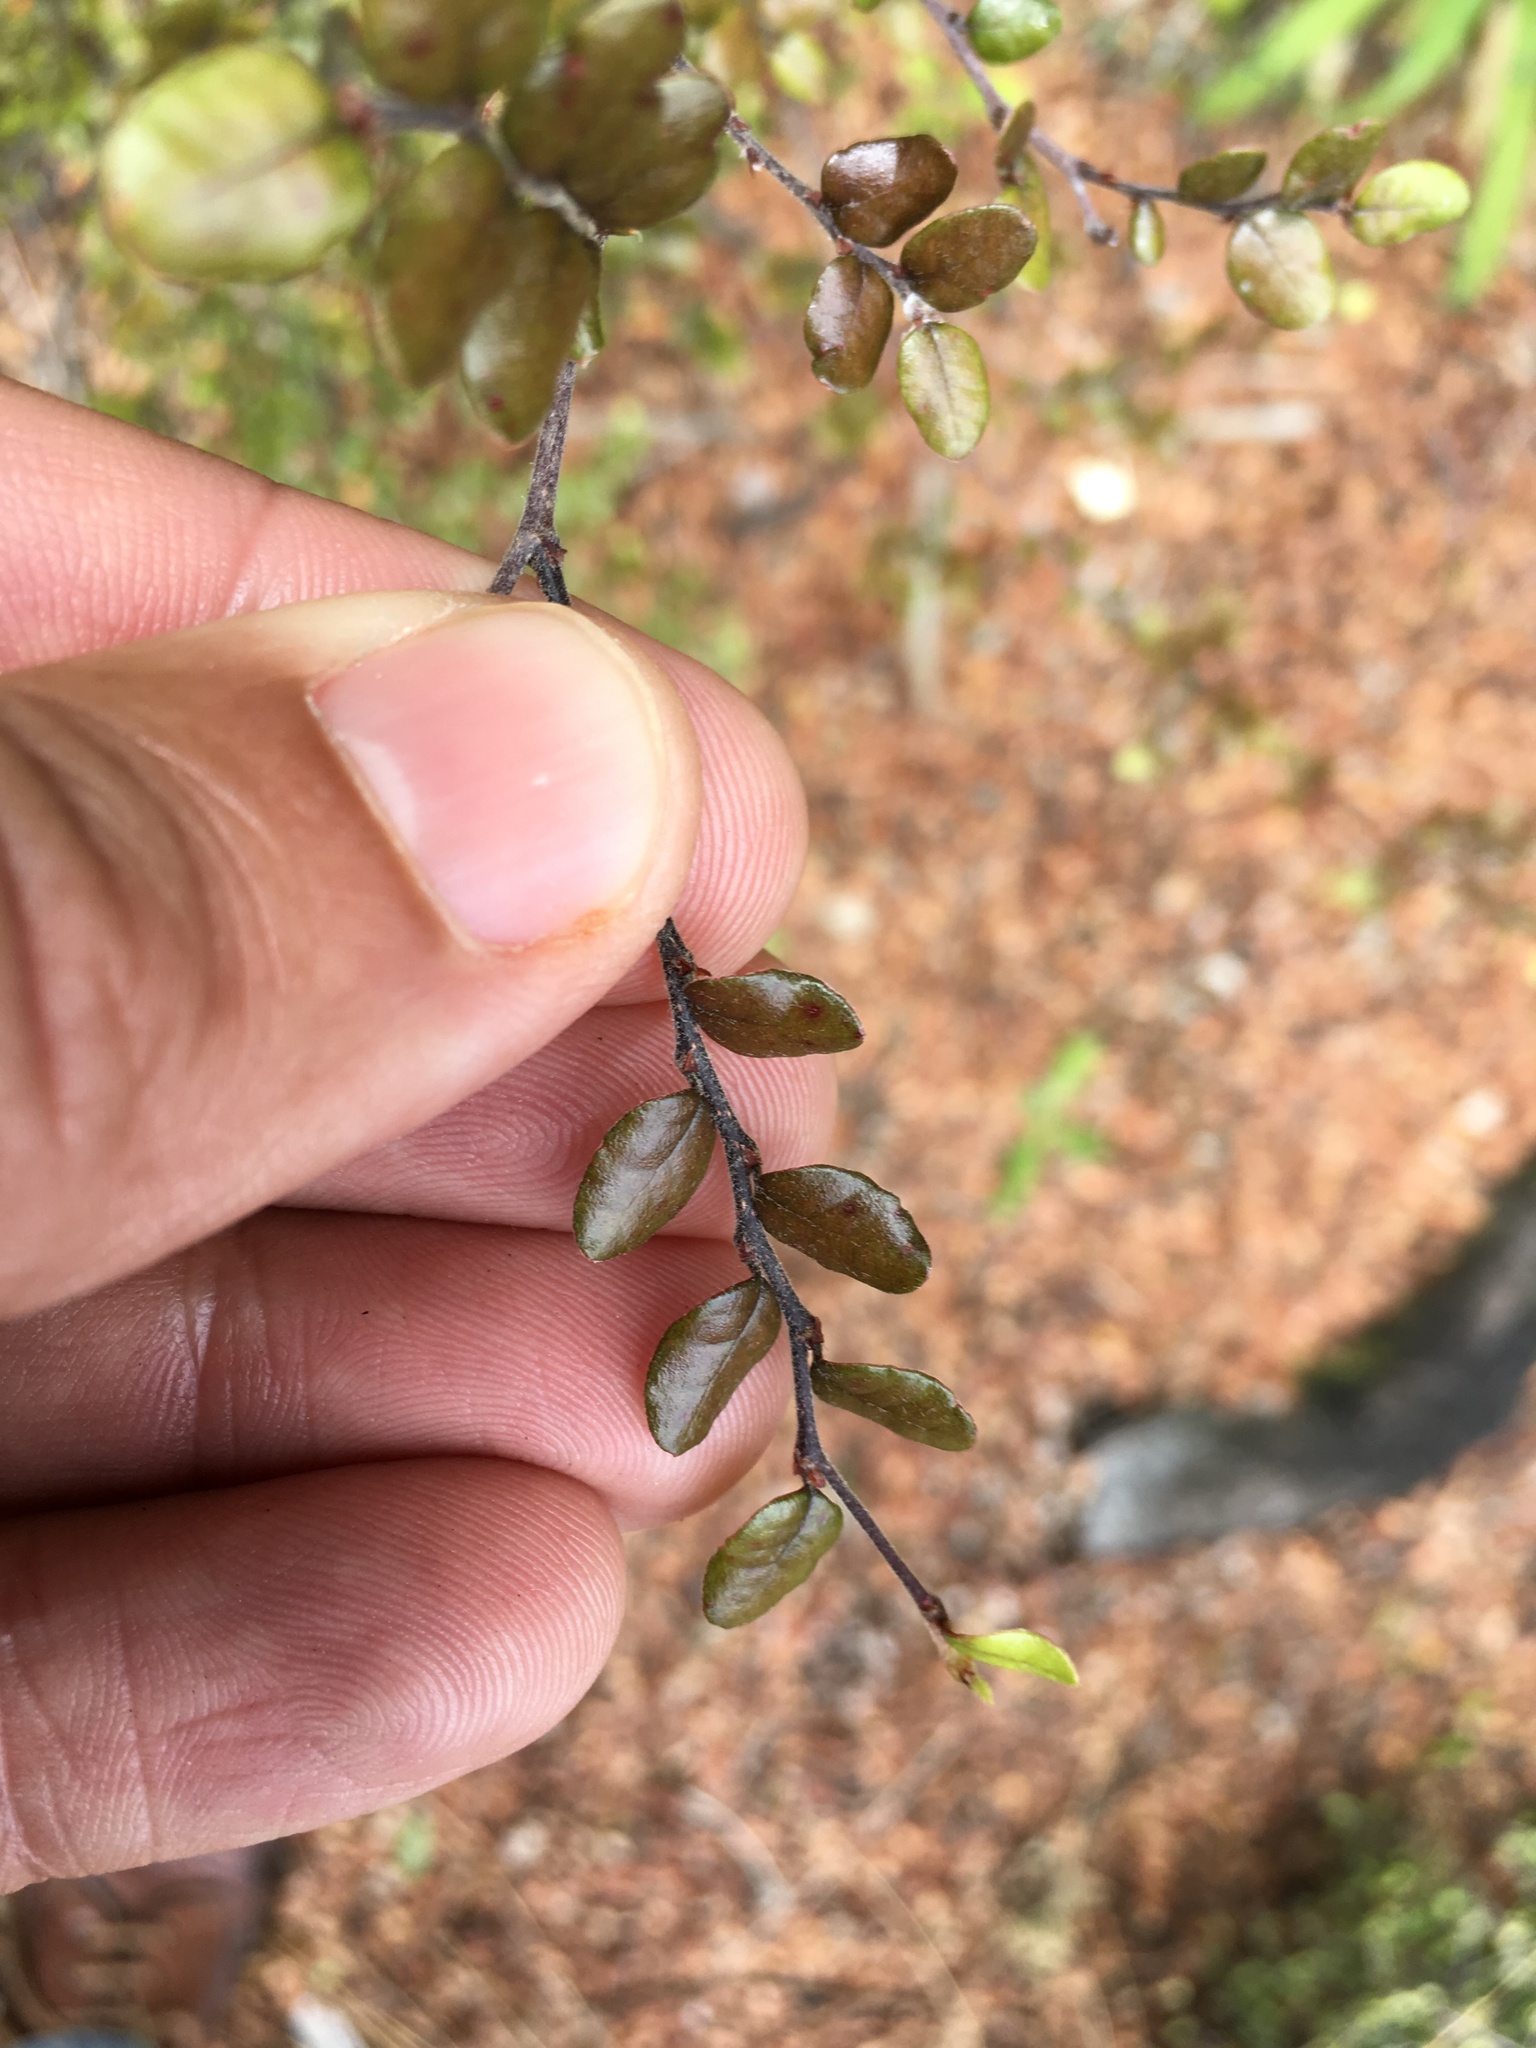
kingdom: Plantae
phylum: Tracheophyta
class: Magnoliopsida
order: Fagales
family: Nothofagaceae
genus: Nothofagus
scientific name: Nothofagus cliffortioides
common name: Mountain beech
